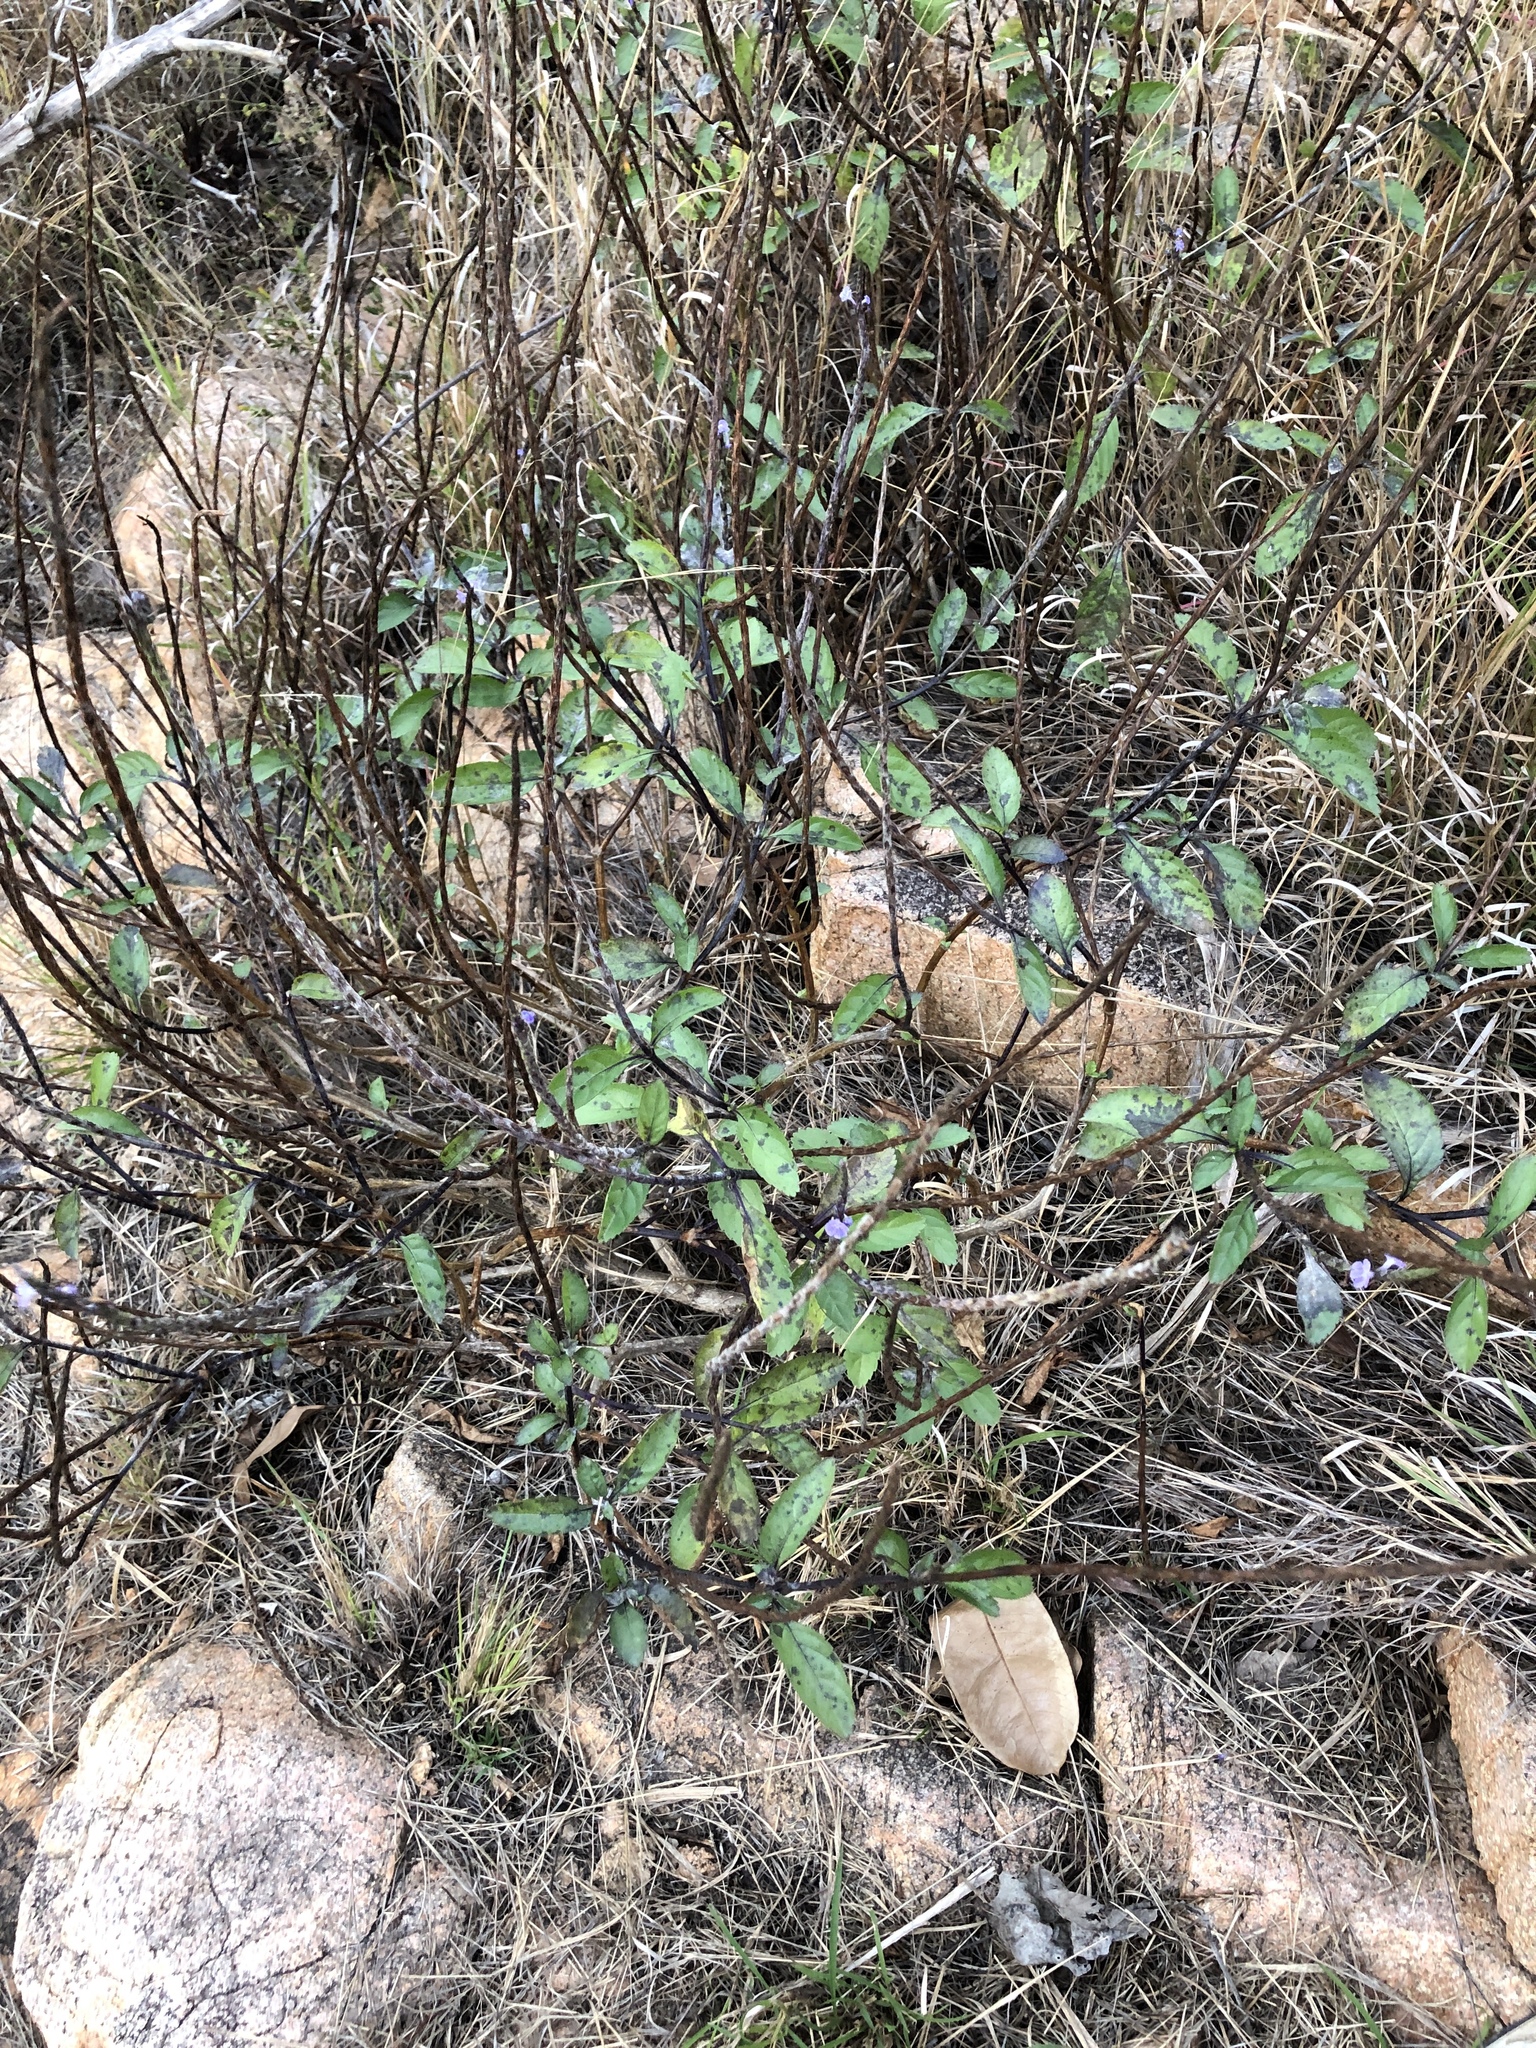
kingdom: Plantae
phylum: Tracheophyta
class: Magnoliopsida
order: Lamiales
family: Verbenaceae
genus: Stachytarpheta
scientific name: Stachytarpheta jamaicensis
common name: Light-blue snakeweed
